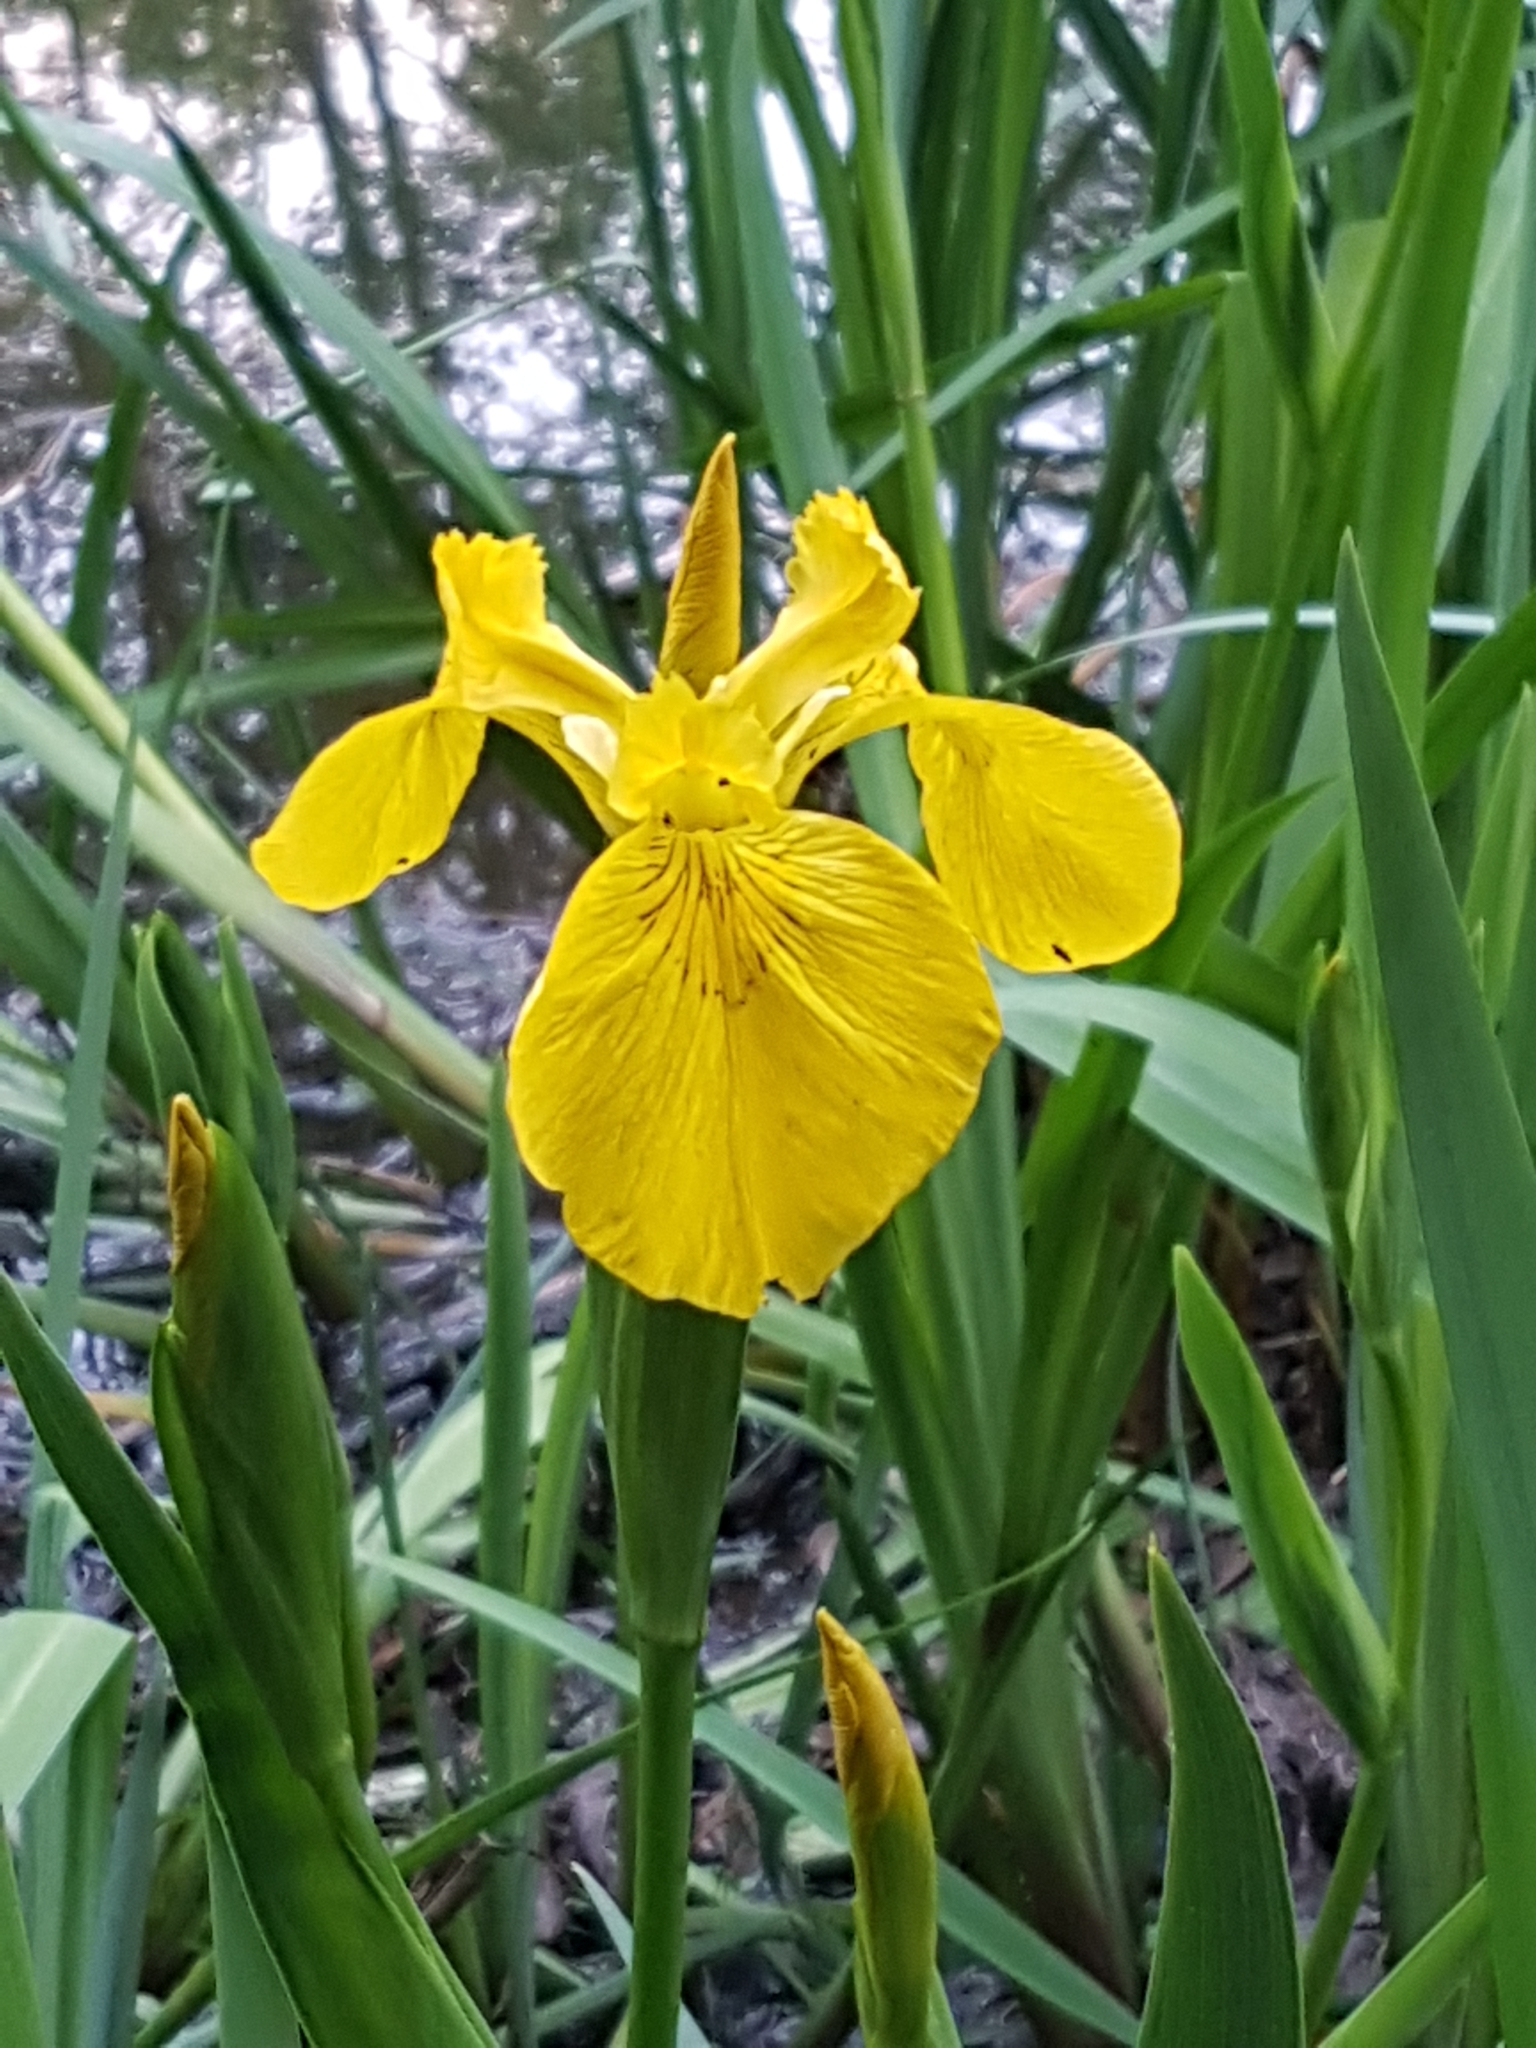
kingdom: Plantae
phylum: Tracheophyta
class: Liliopsida
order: Asparagales
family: Iridaceae
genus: Iris
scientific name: Iris pseudacorus
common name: Yellow flag
